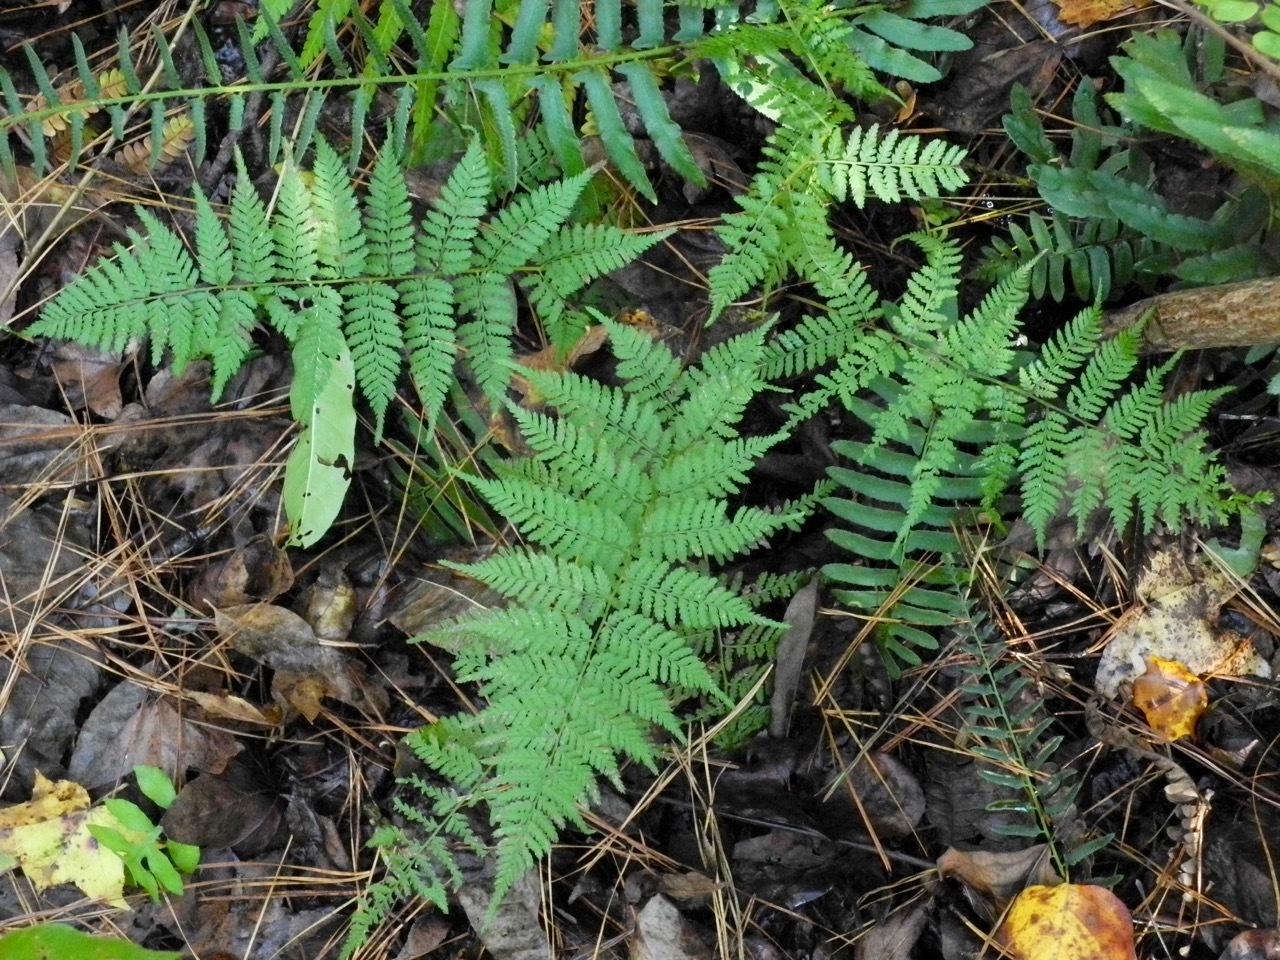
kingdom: Plantae
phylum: Tracheophyta
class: Polypodiopsida
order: Polypodiales
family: Athyriaceae
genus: Athyrium
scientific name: Athyrium asplenioides
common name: Southern lady fern
